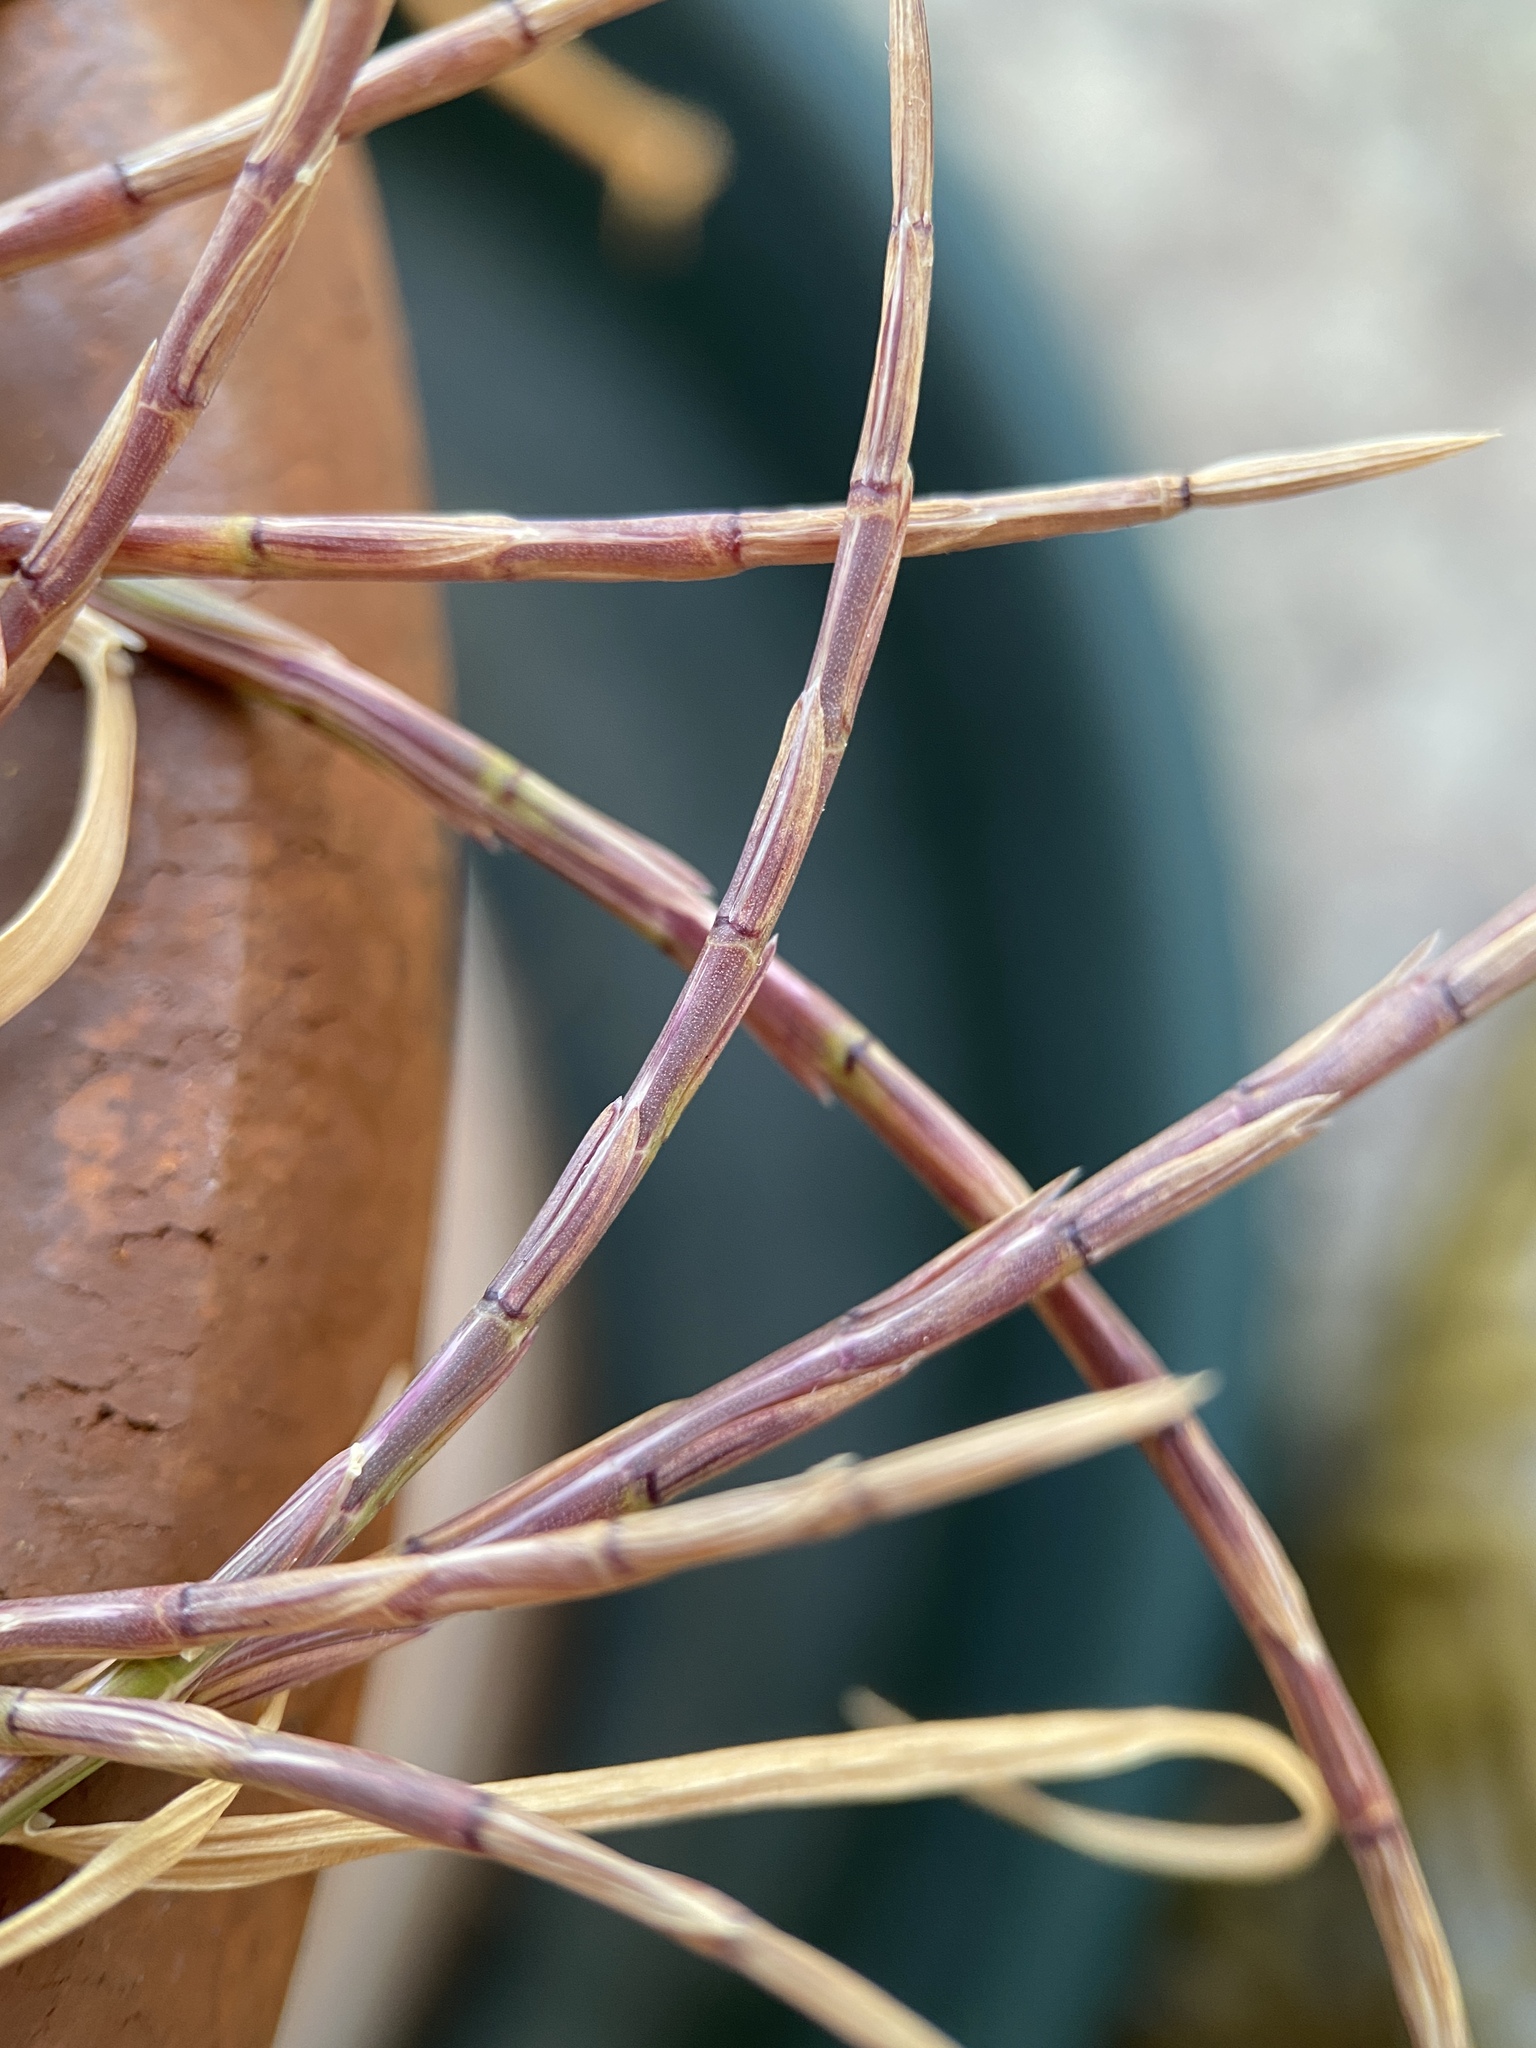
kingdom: Plantae
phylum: Tracheophyta
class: Liliopsida
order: Poales
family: Poaceae
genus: Parapholis
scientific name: Parapholis incurva
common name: Curved sicklegrass
